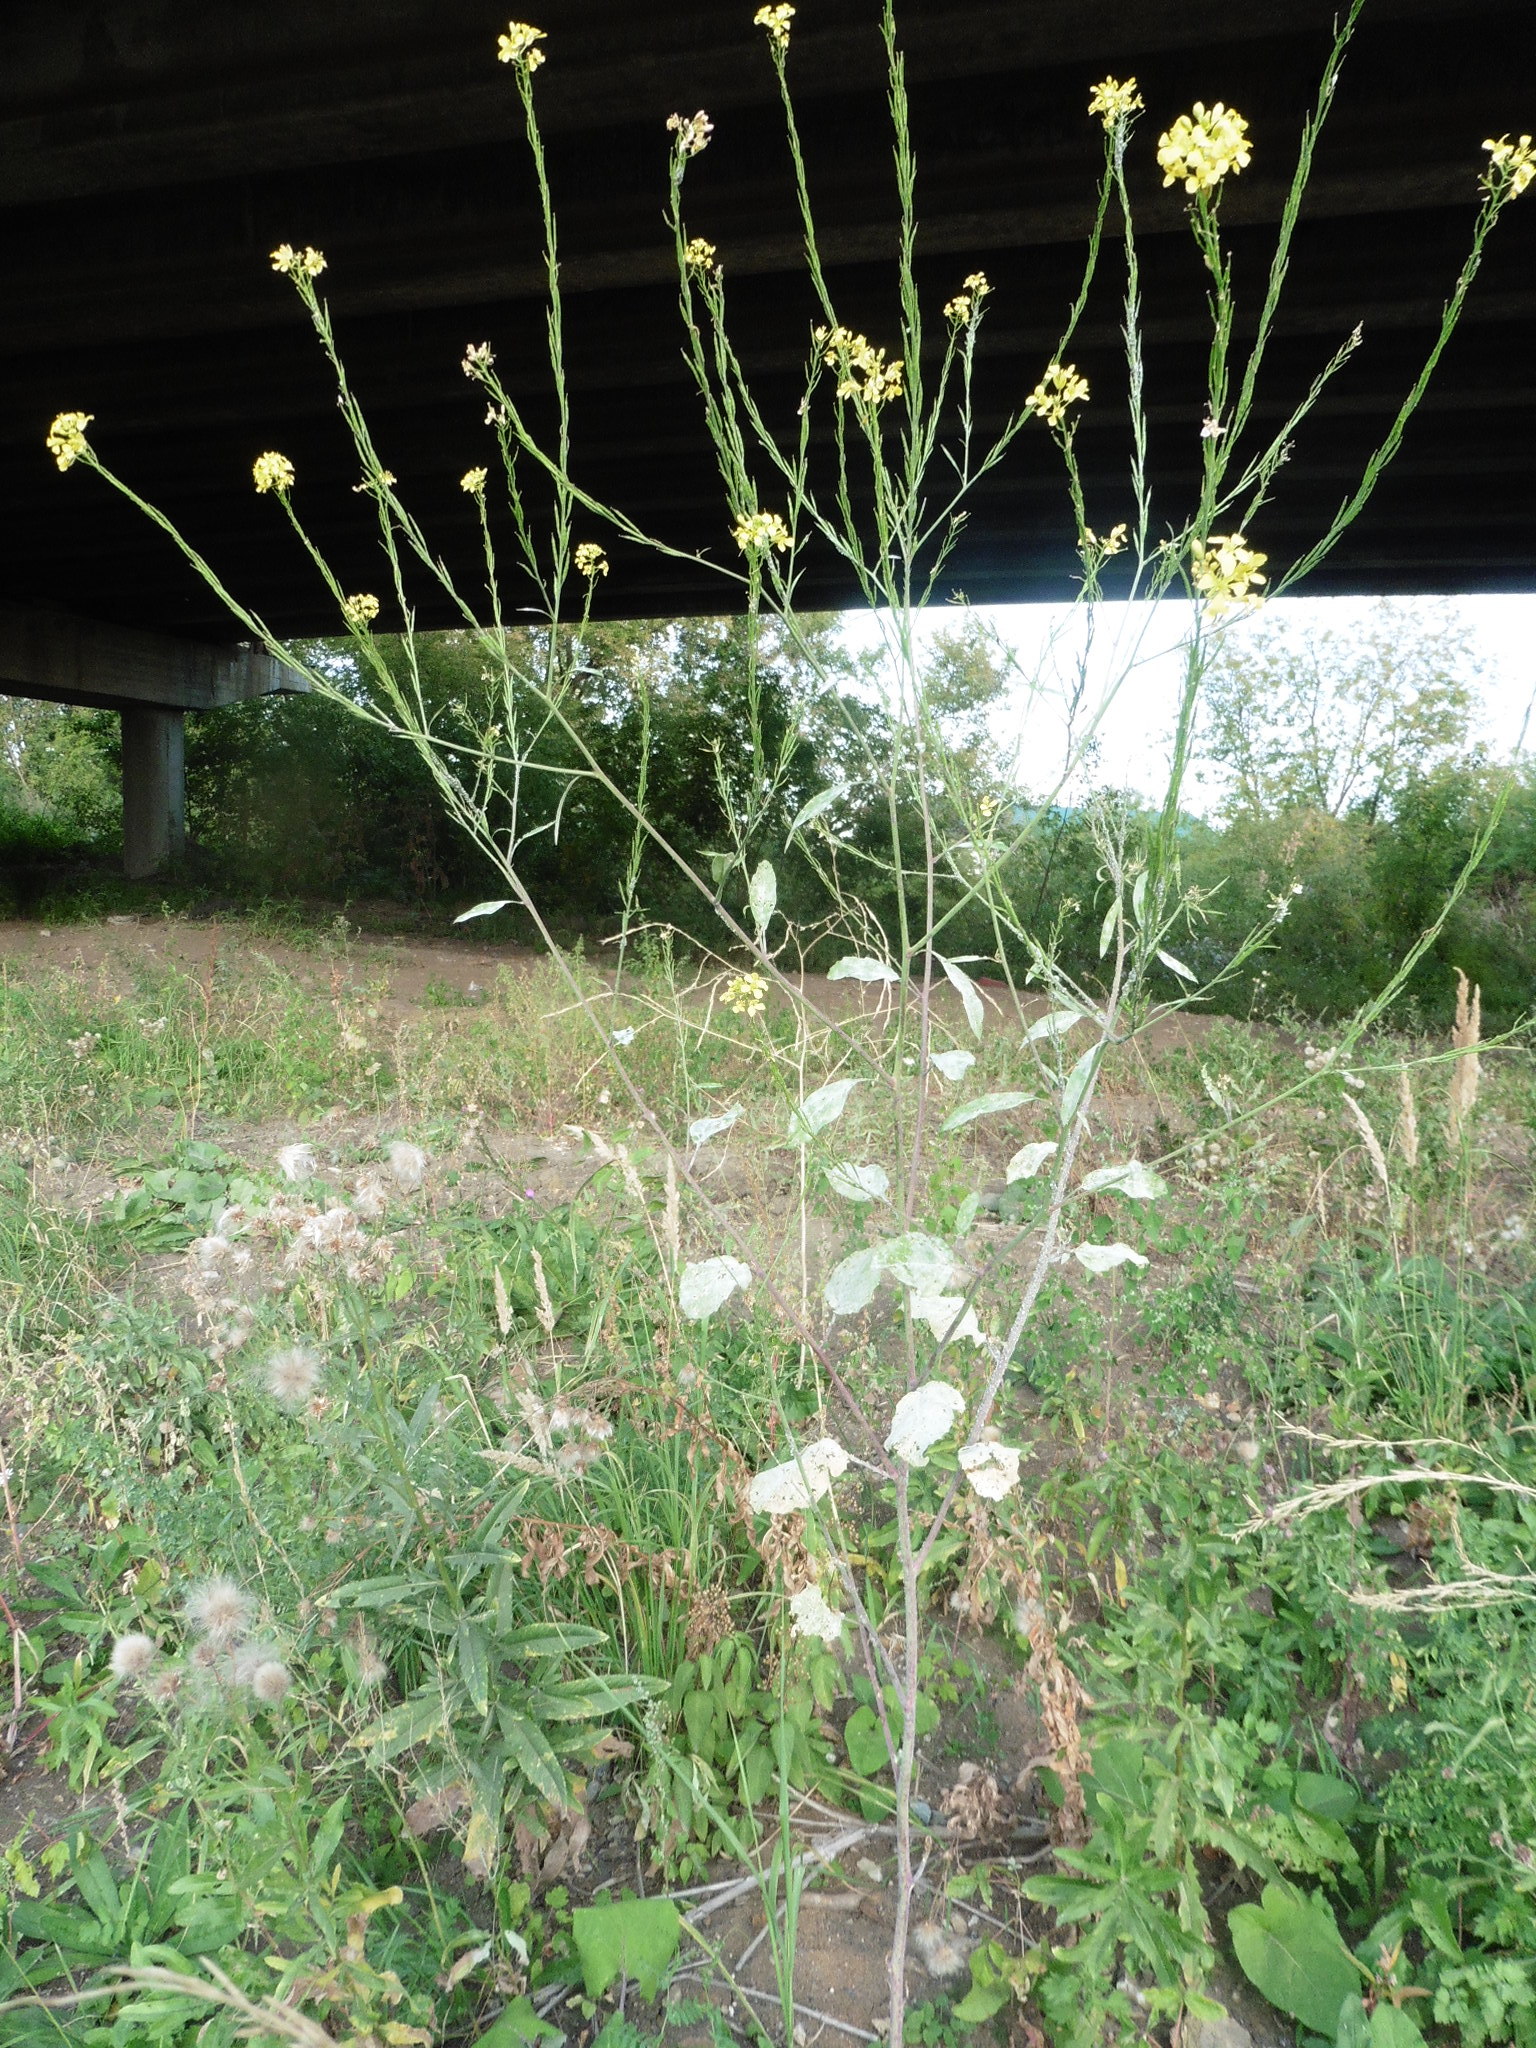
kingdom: Plantae
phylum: Tracheophyta
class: Magnoliopsida
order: Brassicales
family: Brassicaceae
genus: Brassica
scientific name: Brassica nigra
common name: Black mustard
